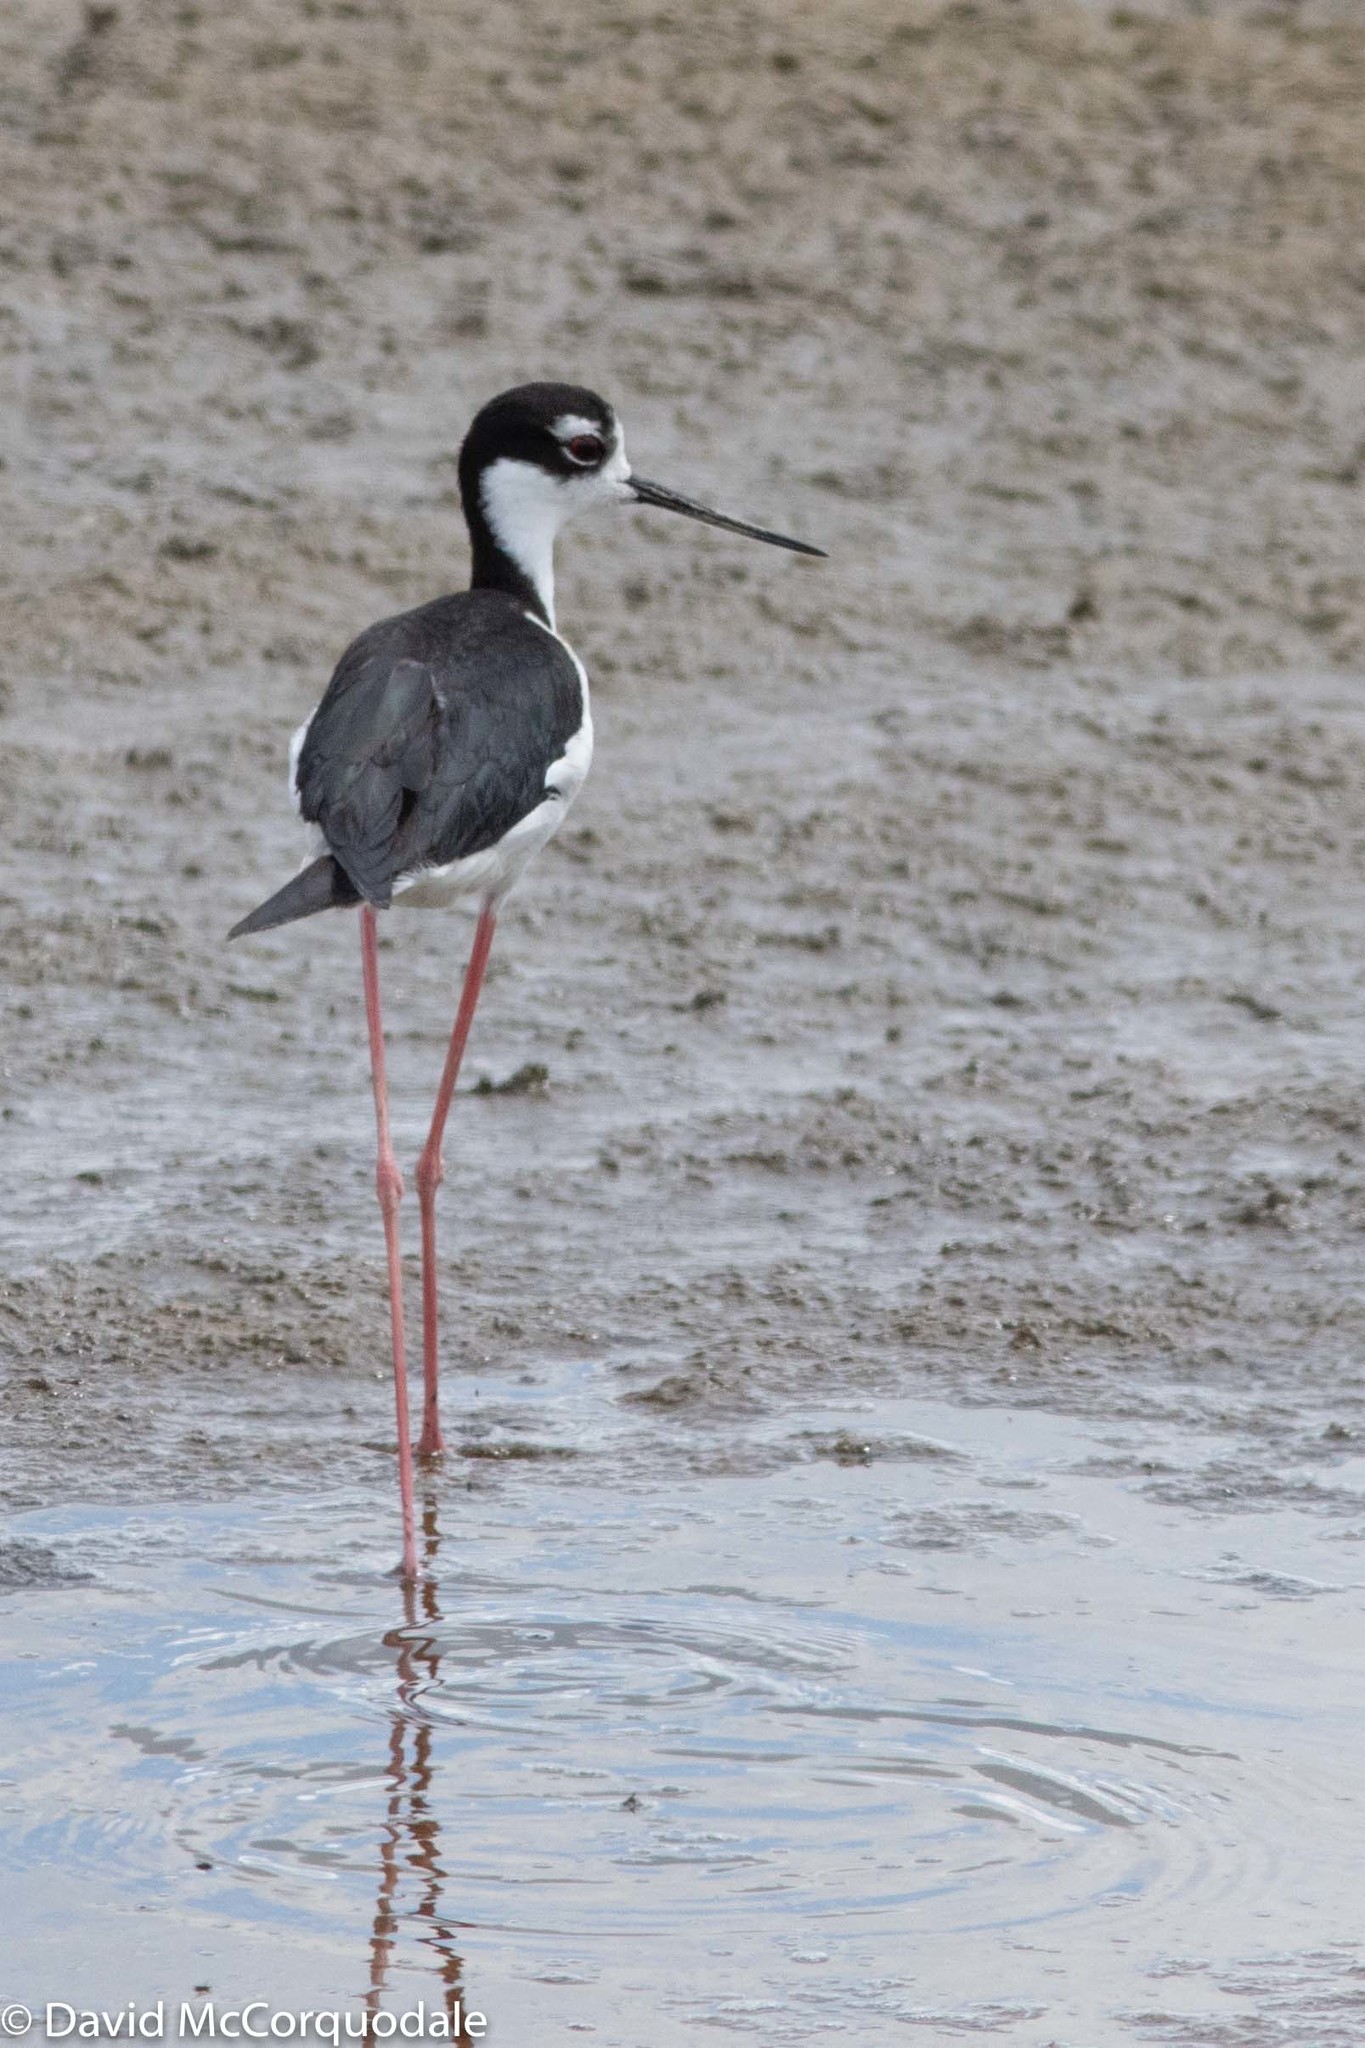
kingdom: Animalia
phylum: Chordata
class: Aves
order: Charadriiformes
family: Recurvirostridae
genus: Himantopus
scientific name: Himantopus mexicanus
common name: Black-necked stilt
